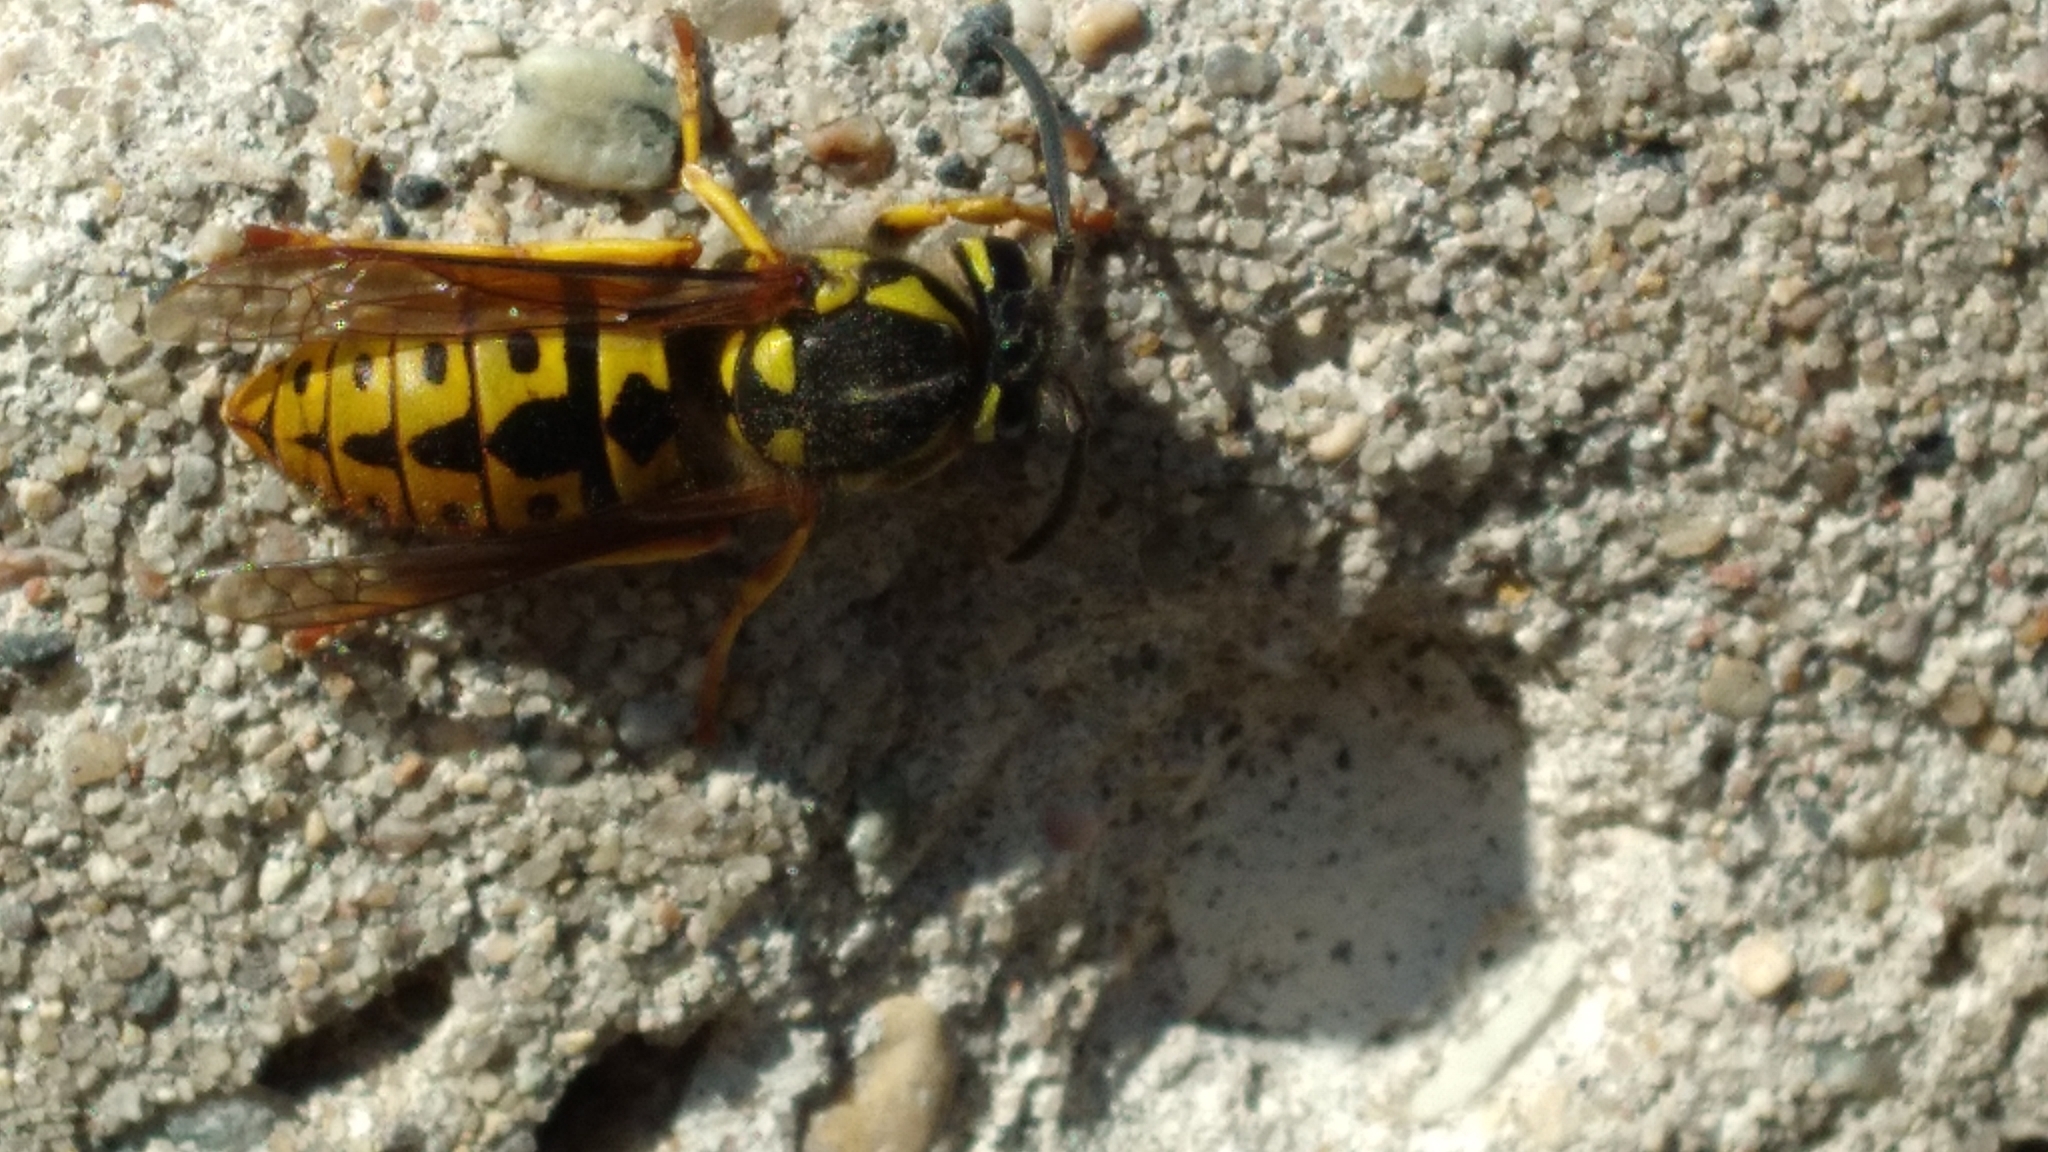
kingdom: Animalia
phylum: Arthropoda
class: Insecta
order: Hymenoptera
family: Vespidae
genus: Vespula
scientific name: Vespula germanica
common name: German wasp
